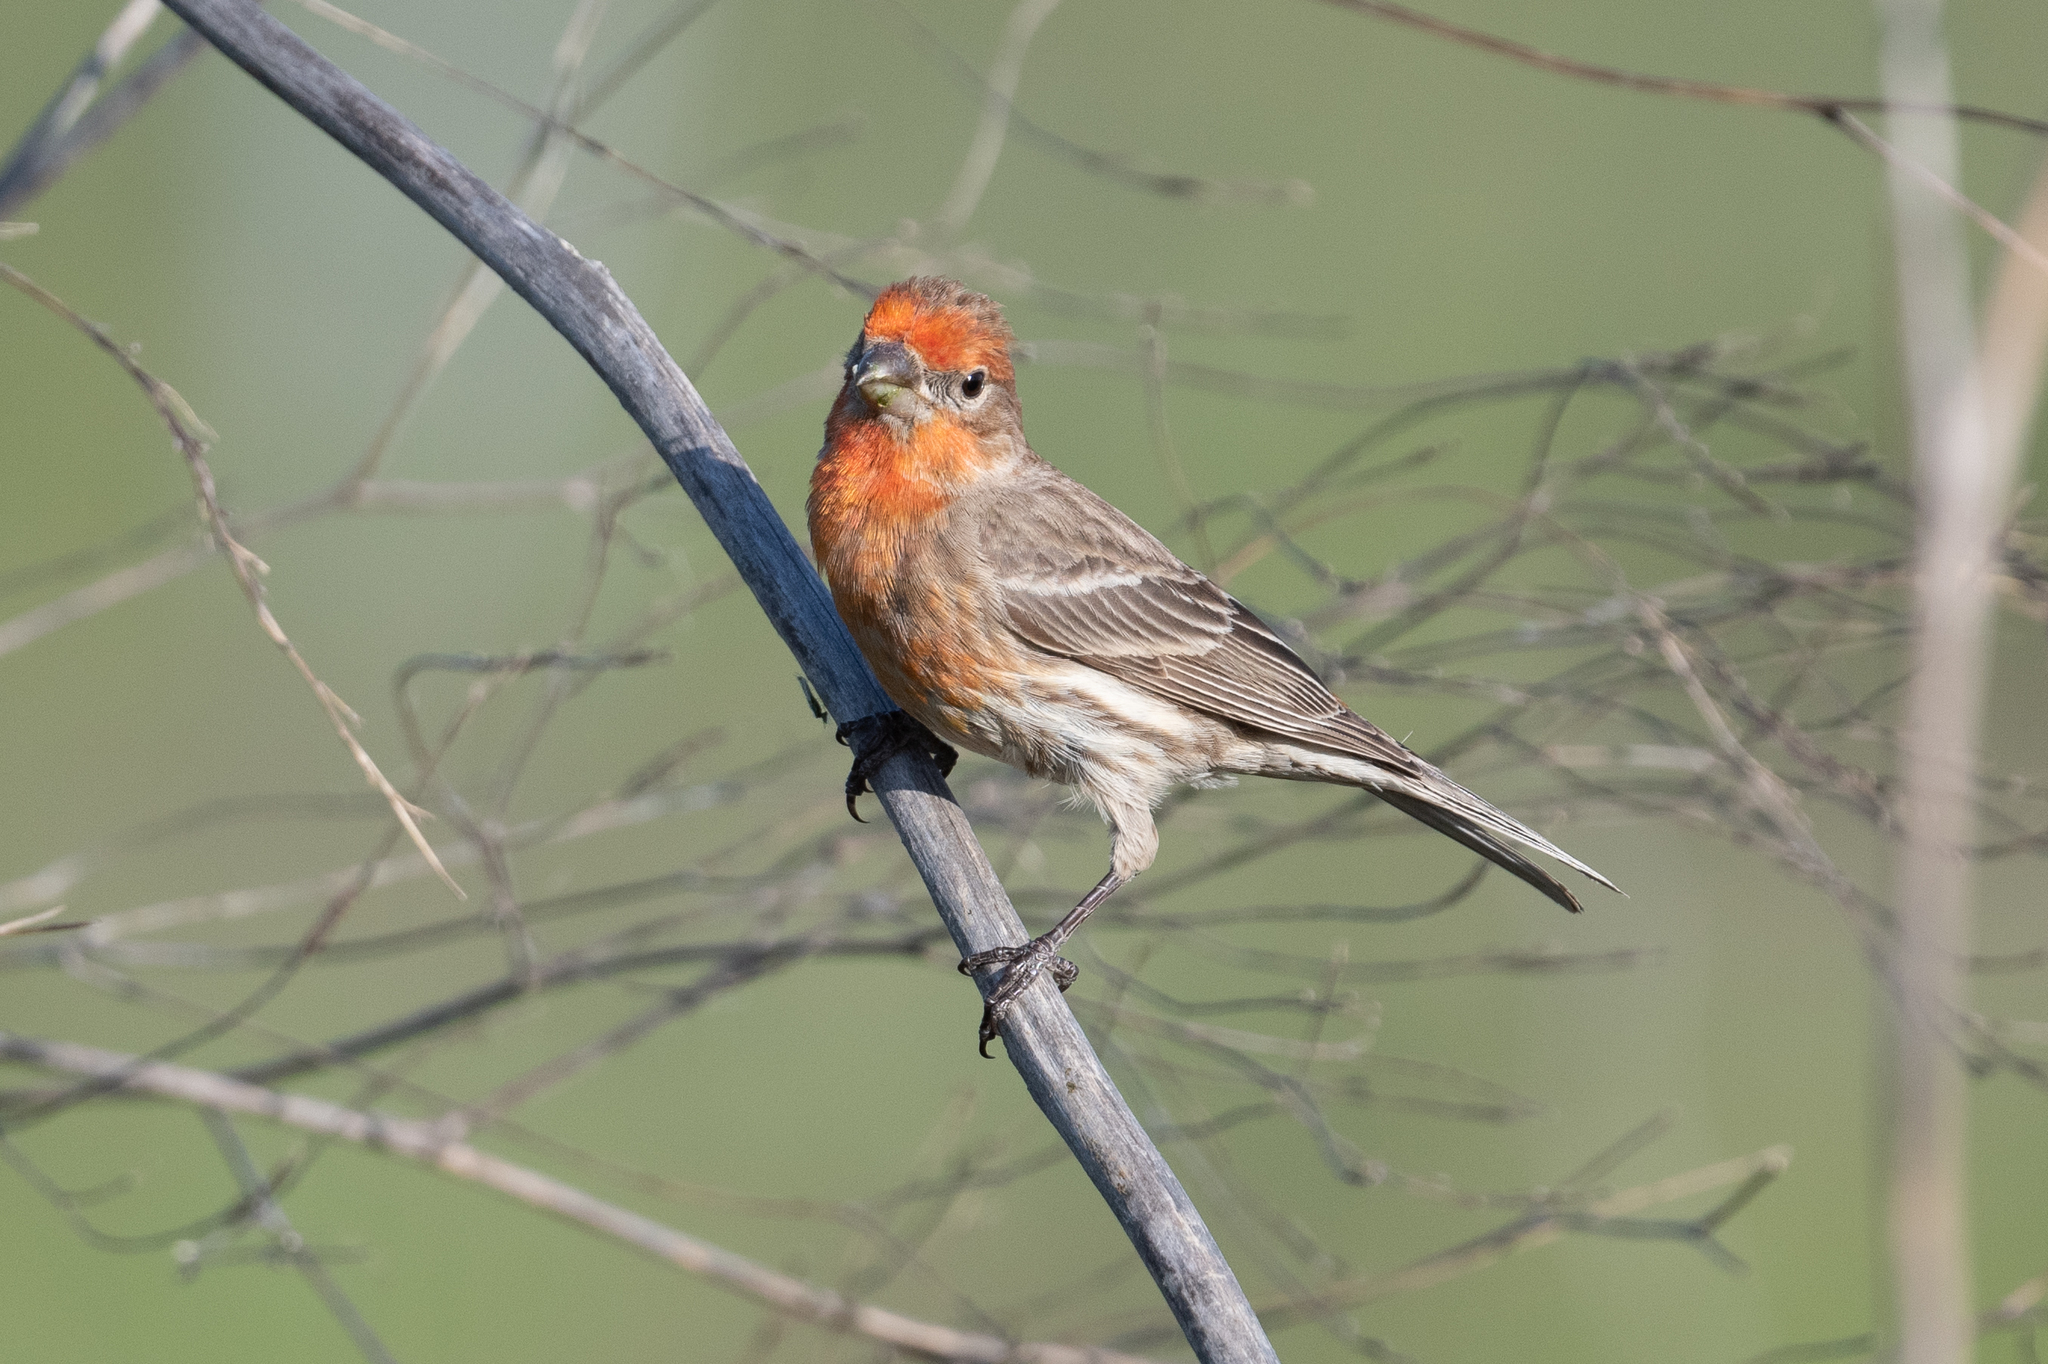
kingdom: Animalia
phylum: Chordata
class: Aves
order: Passeriformes
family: Fringillidae
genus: Haemorhous
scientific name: Haemorhous mexicanus
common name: House finch
